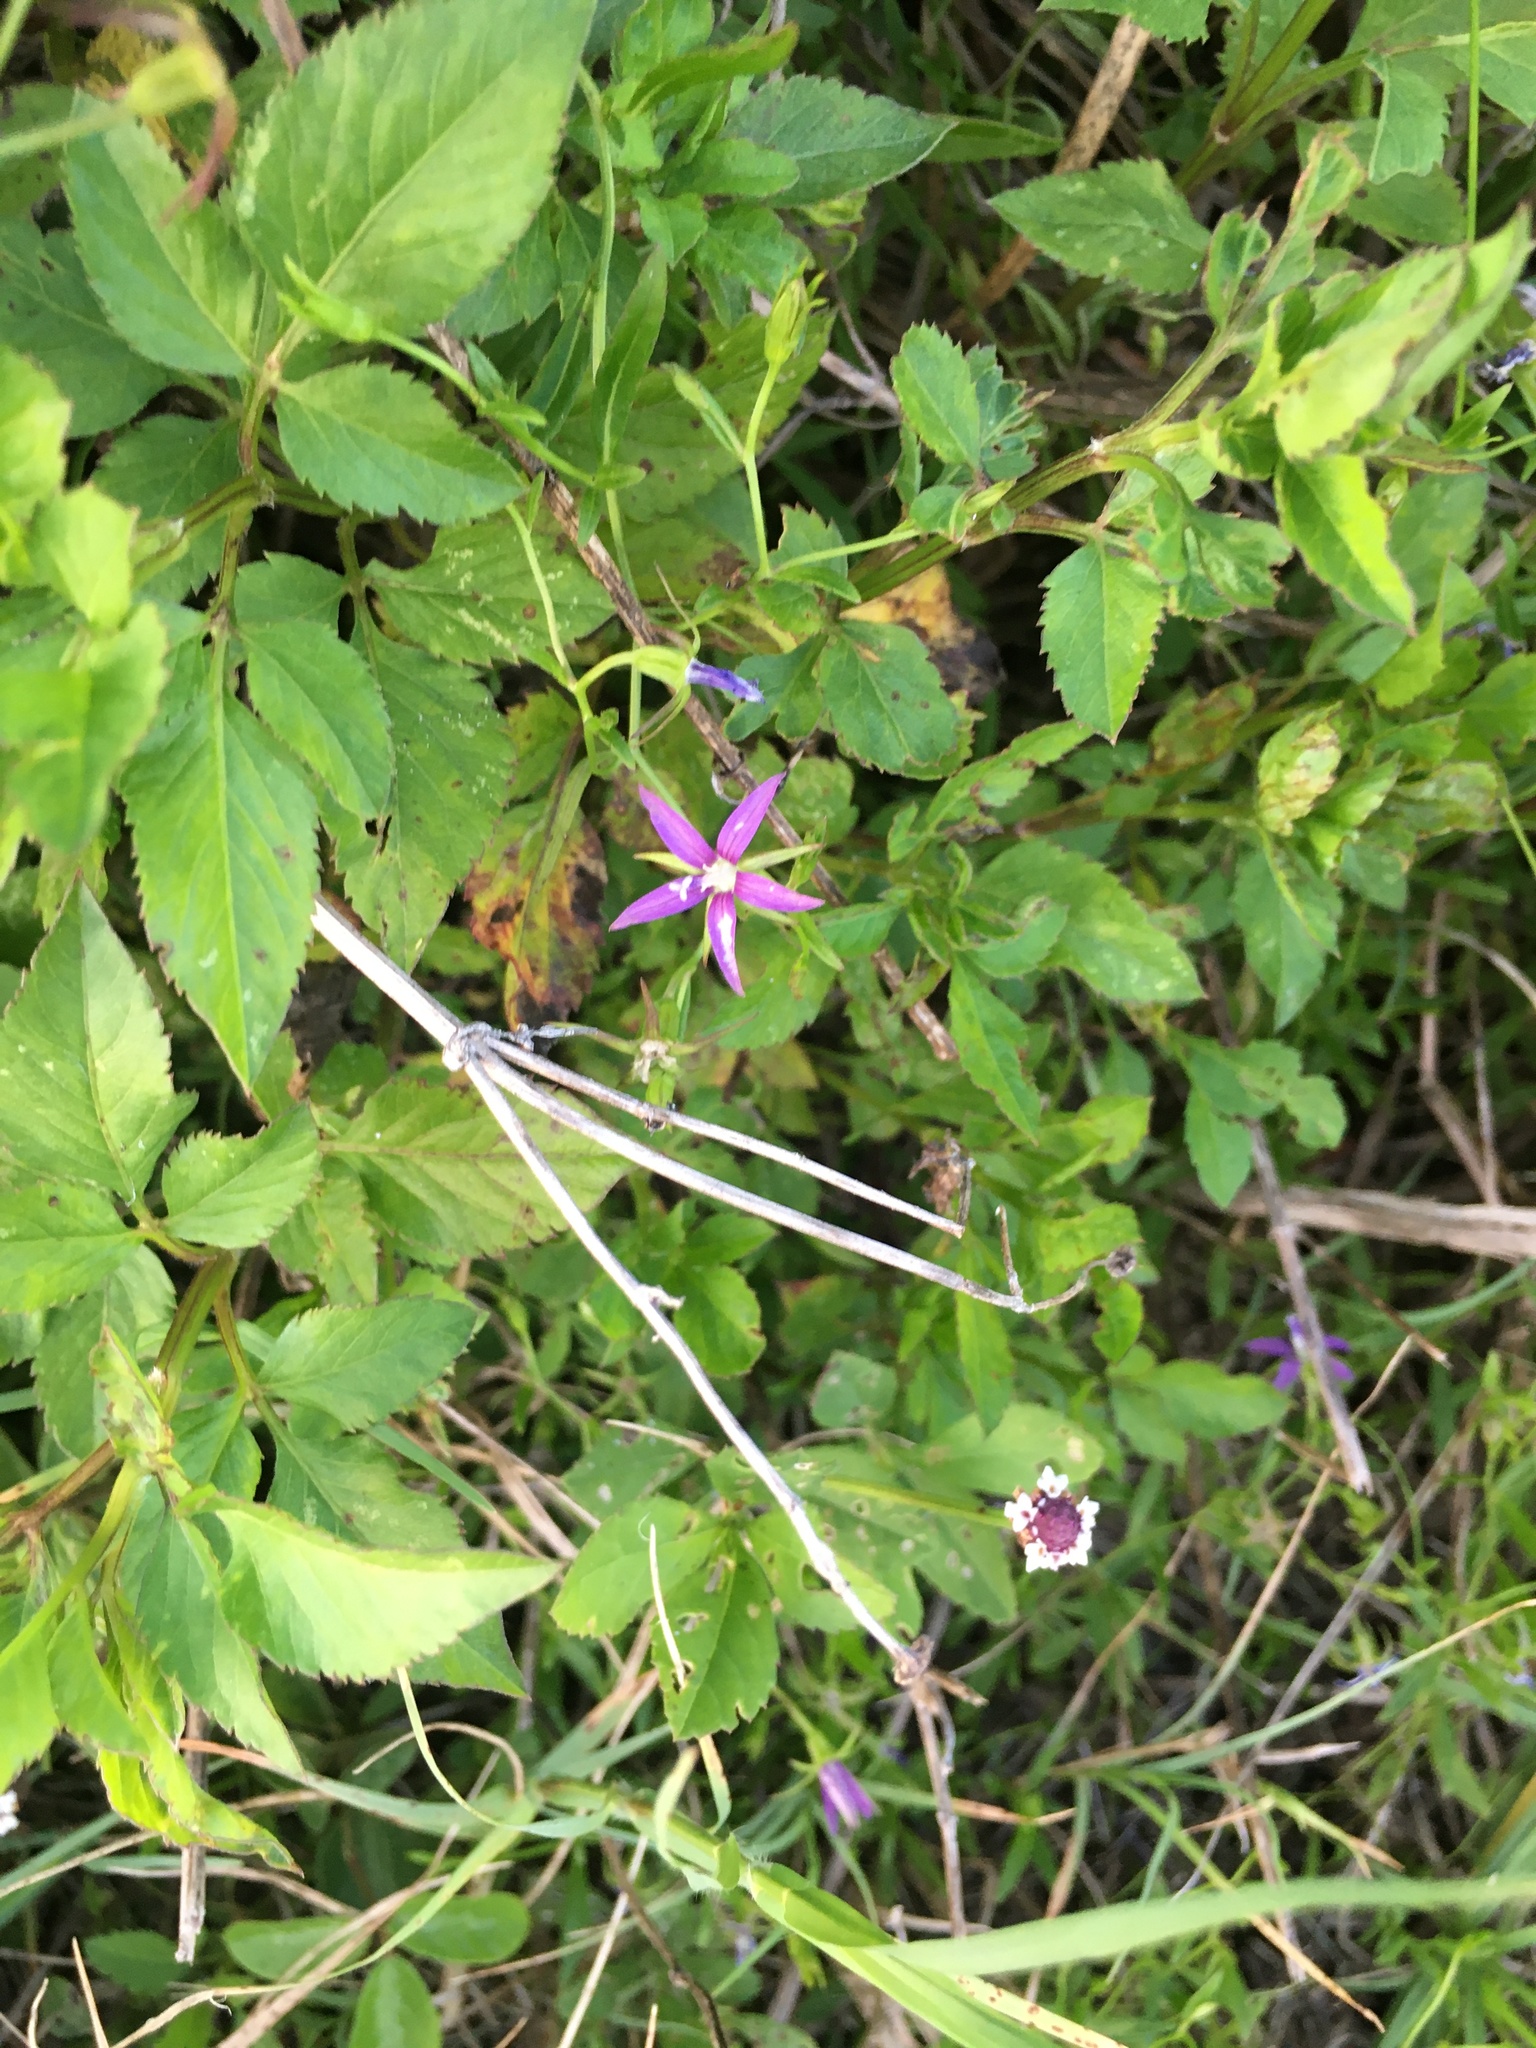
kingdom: Plantae
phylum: Tracheophyta
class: Magnoliopsida
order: Asterales
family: Campanulaceae
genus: Rotanthella
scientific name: Rotanthella floridana
